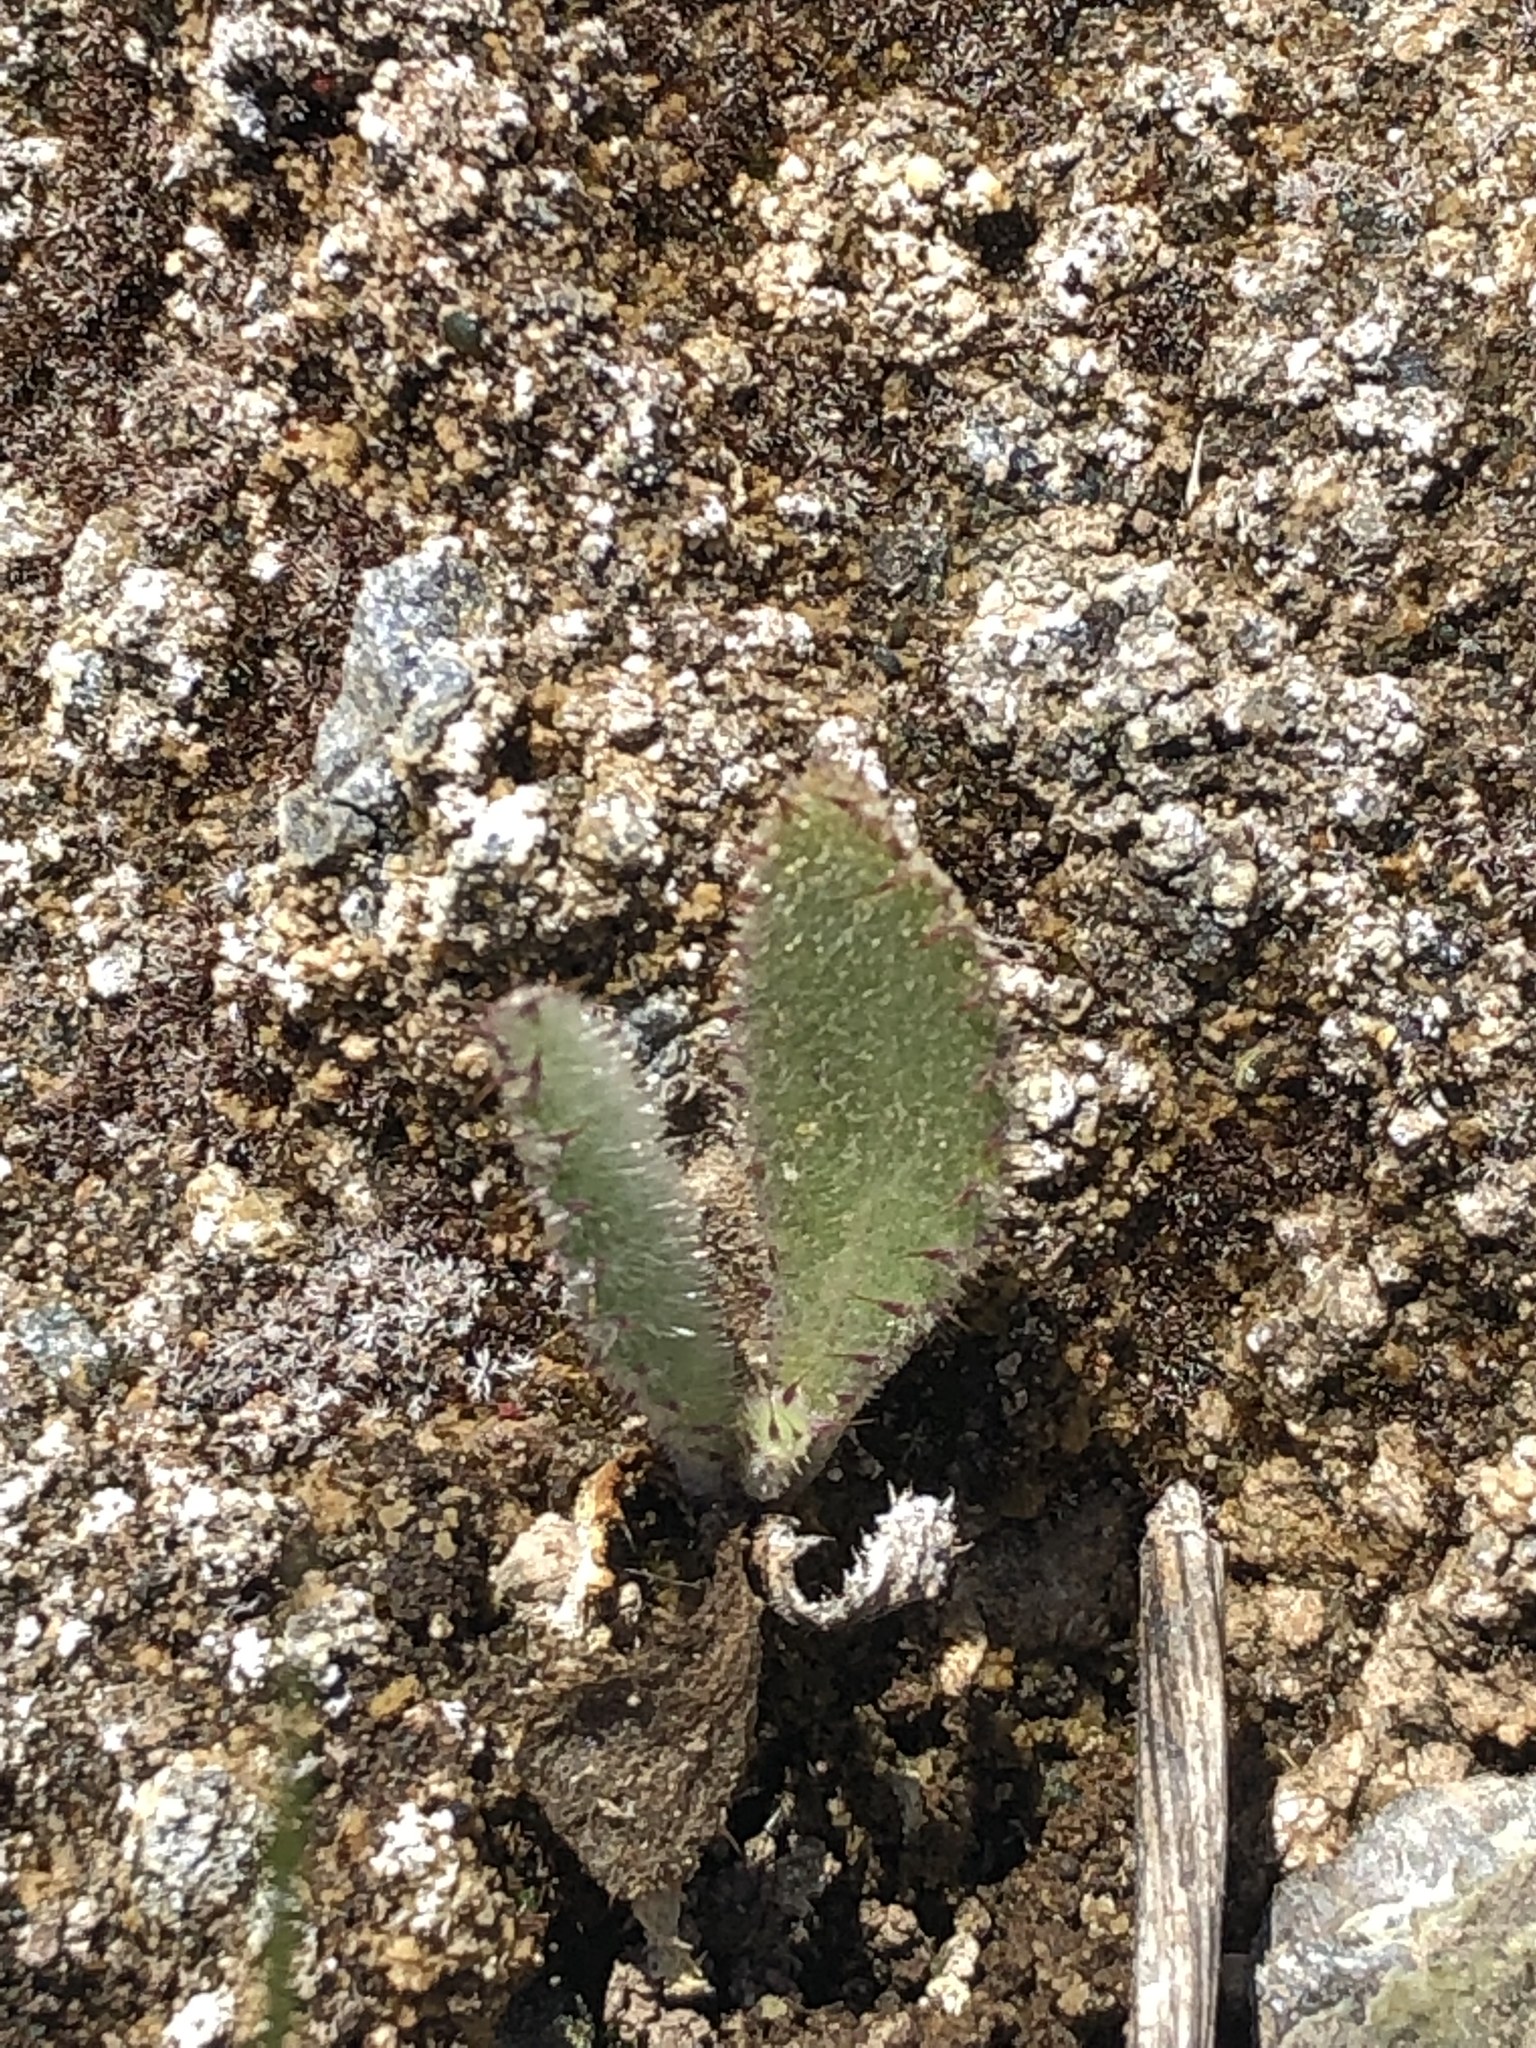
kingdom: Plantae
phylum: Tracheophyta
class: Magnoliopsida
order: Asterales
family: Asteraceae
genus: Cirsium
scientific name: Cirsium fontinale
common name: Fountain thistle
